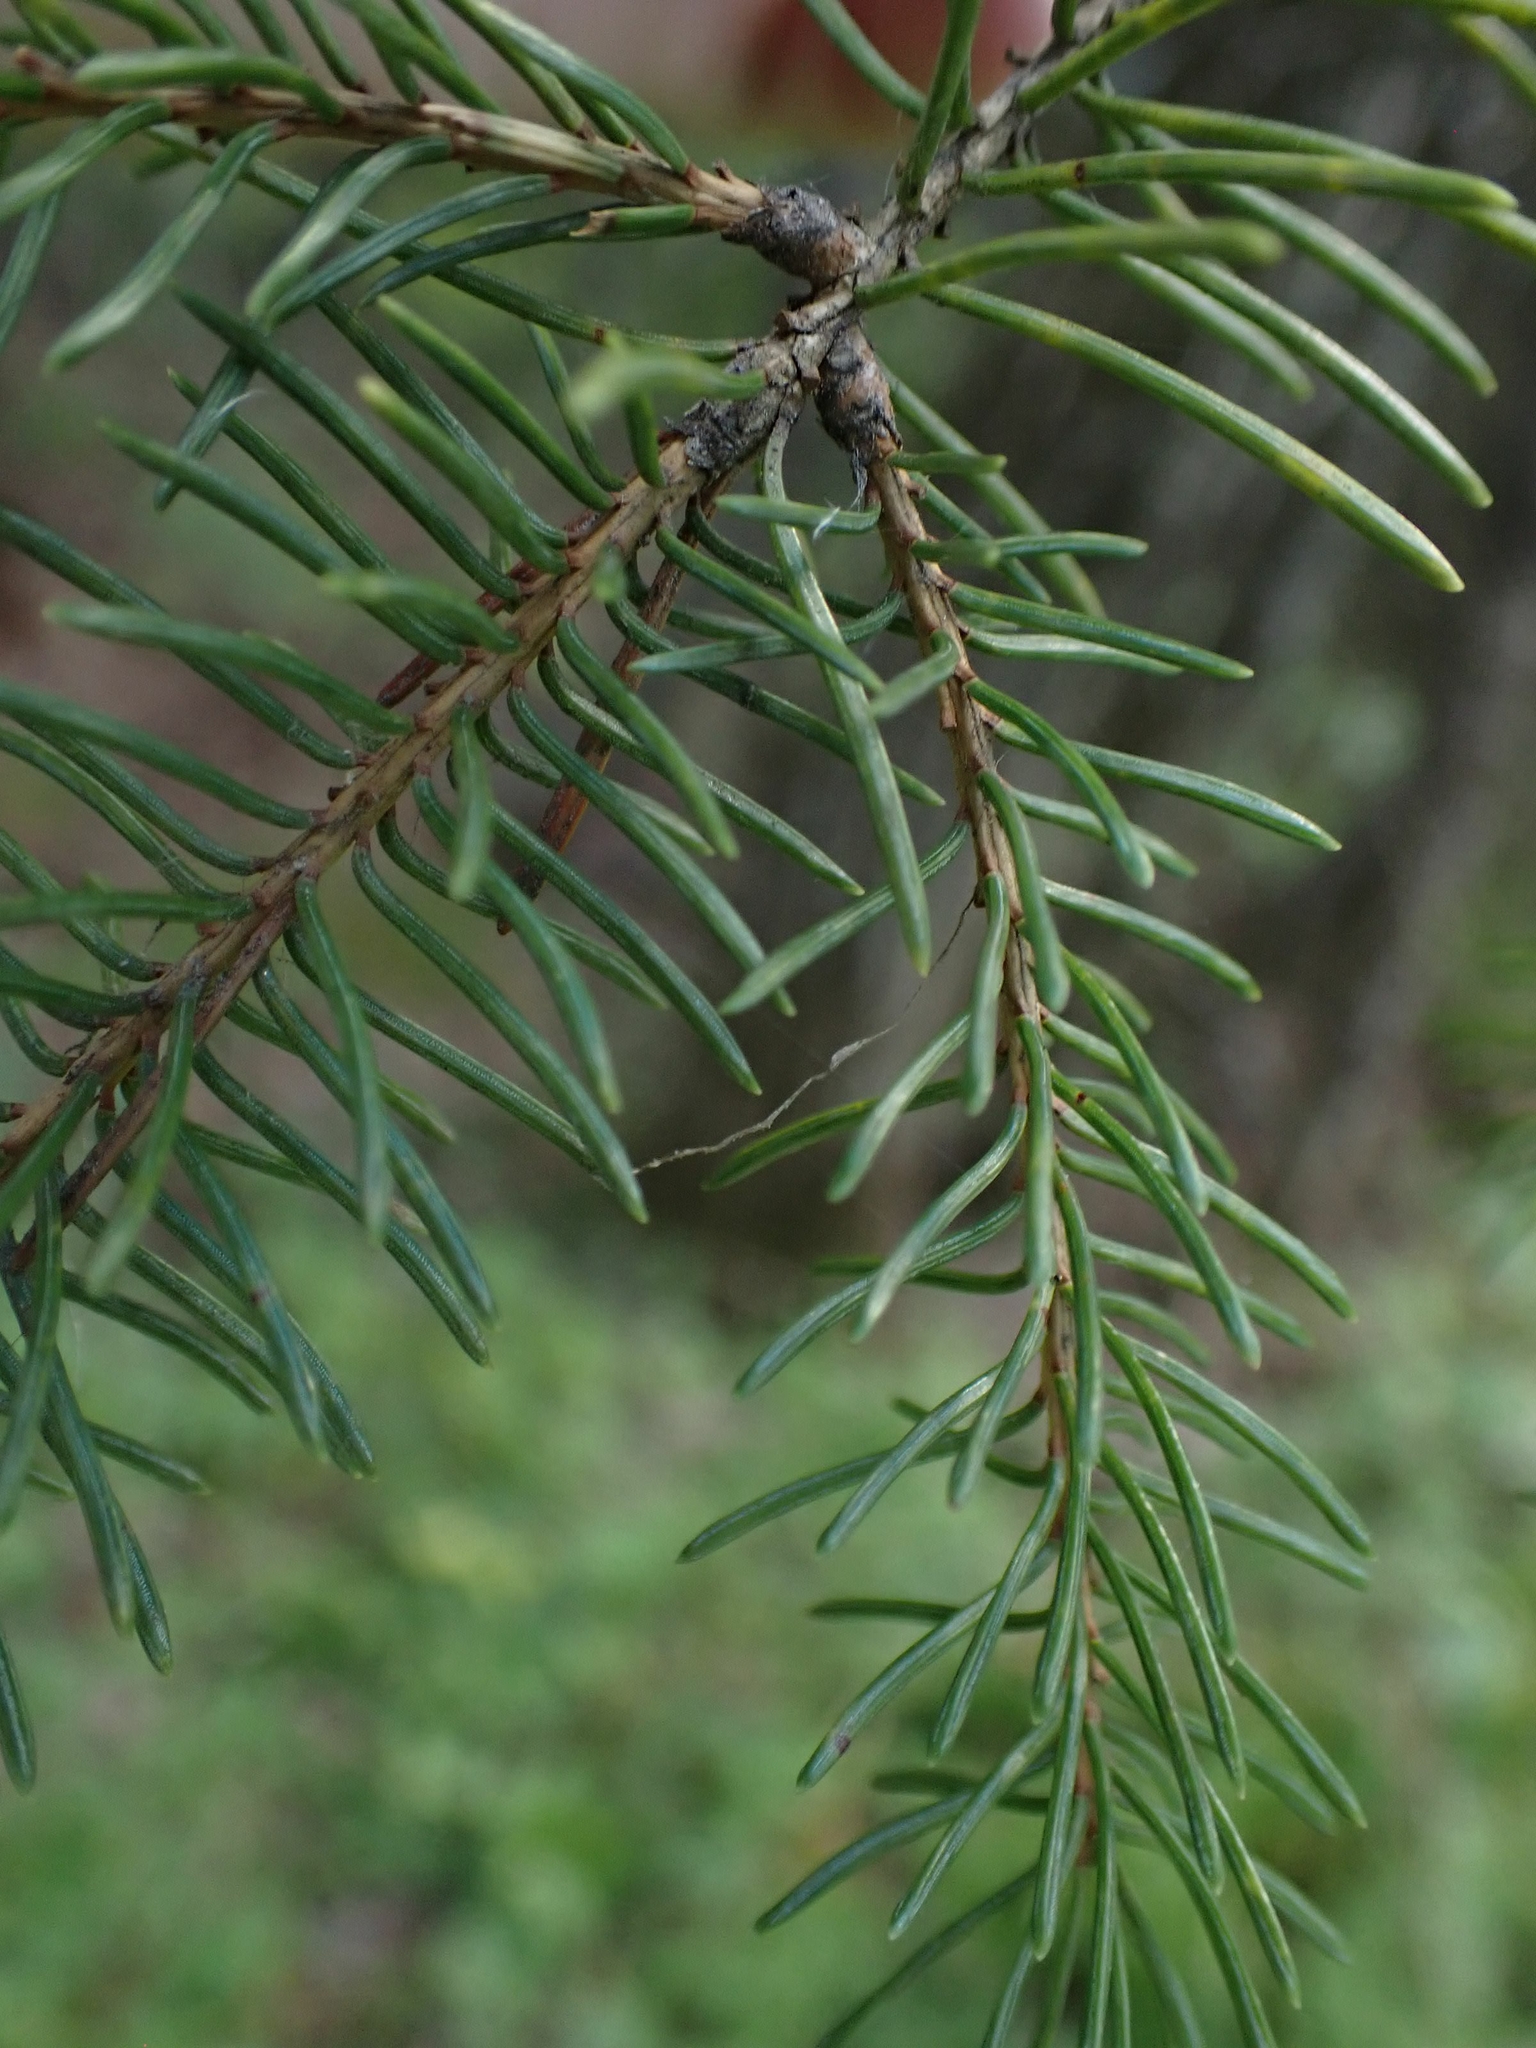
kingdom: Plantae
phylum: Tracheophyta
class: Pinopsida
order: Pinales
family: Pinaceae
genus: Picea
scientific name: Picea mariana
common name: Black spruce
